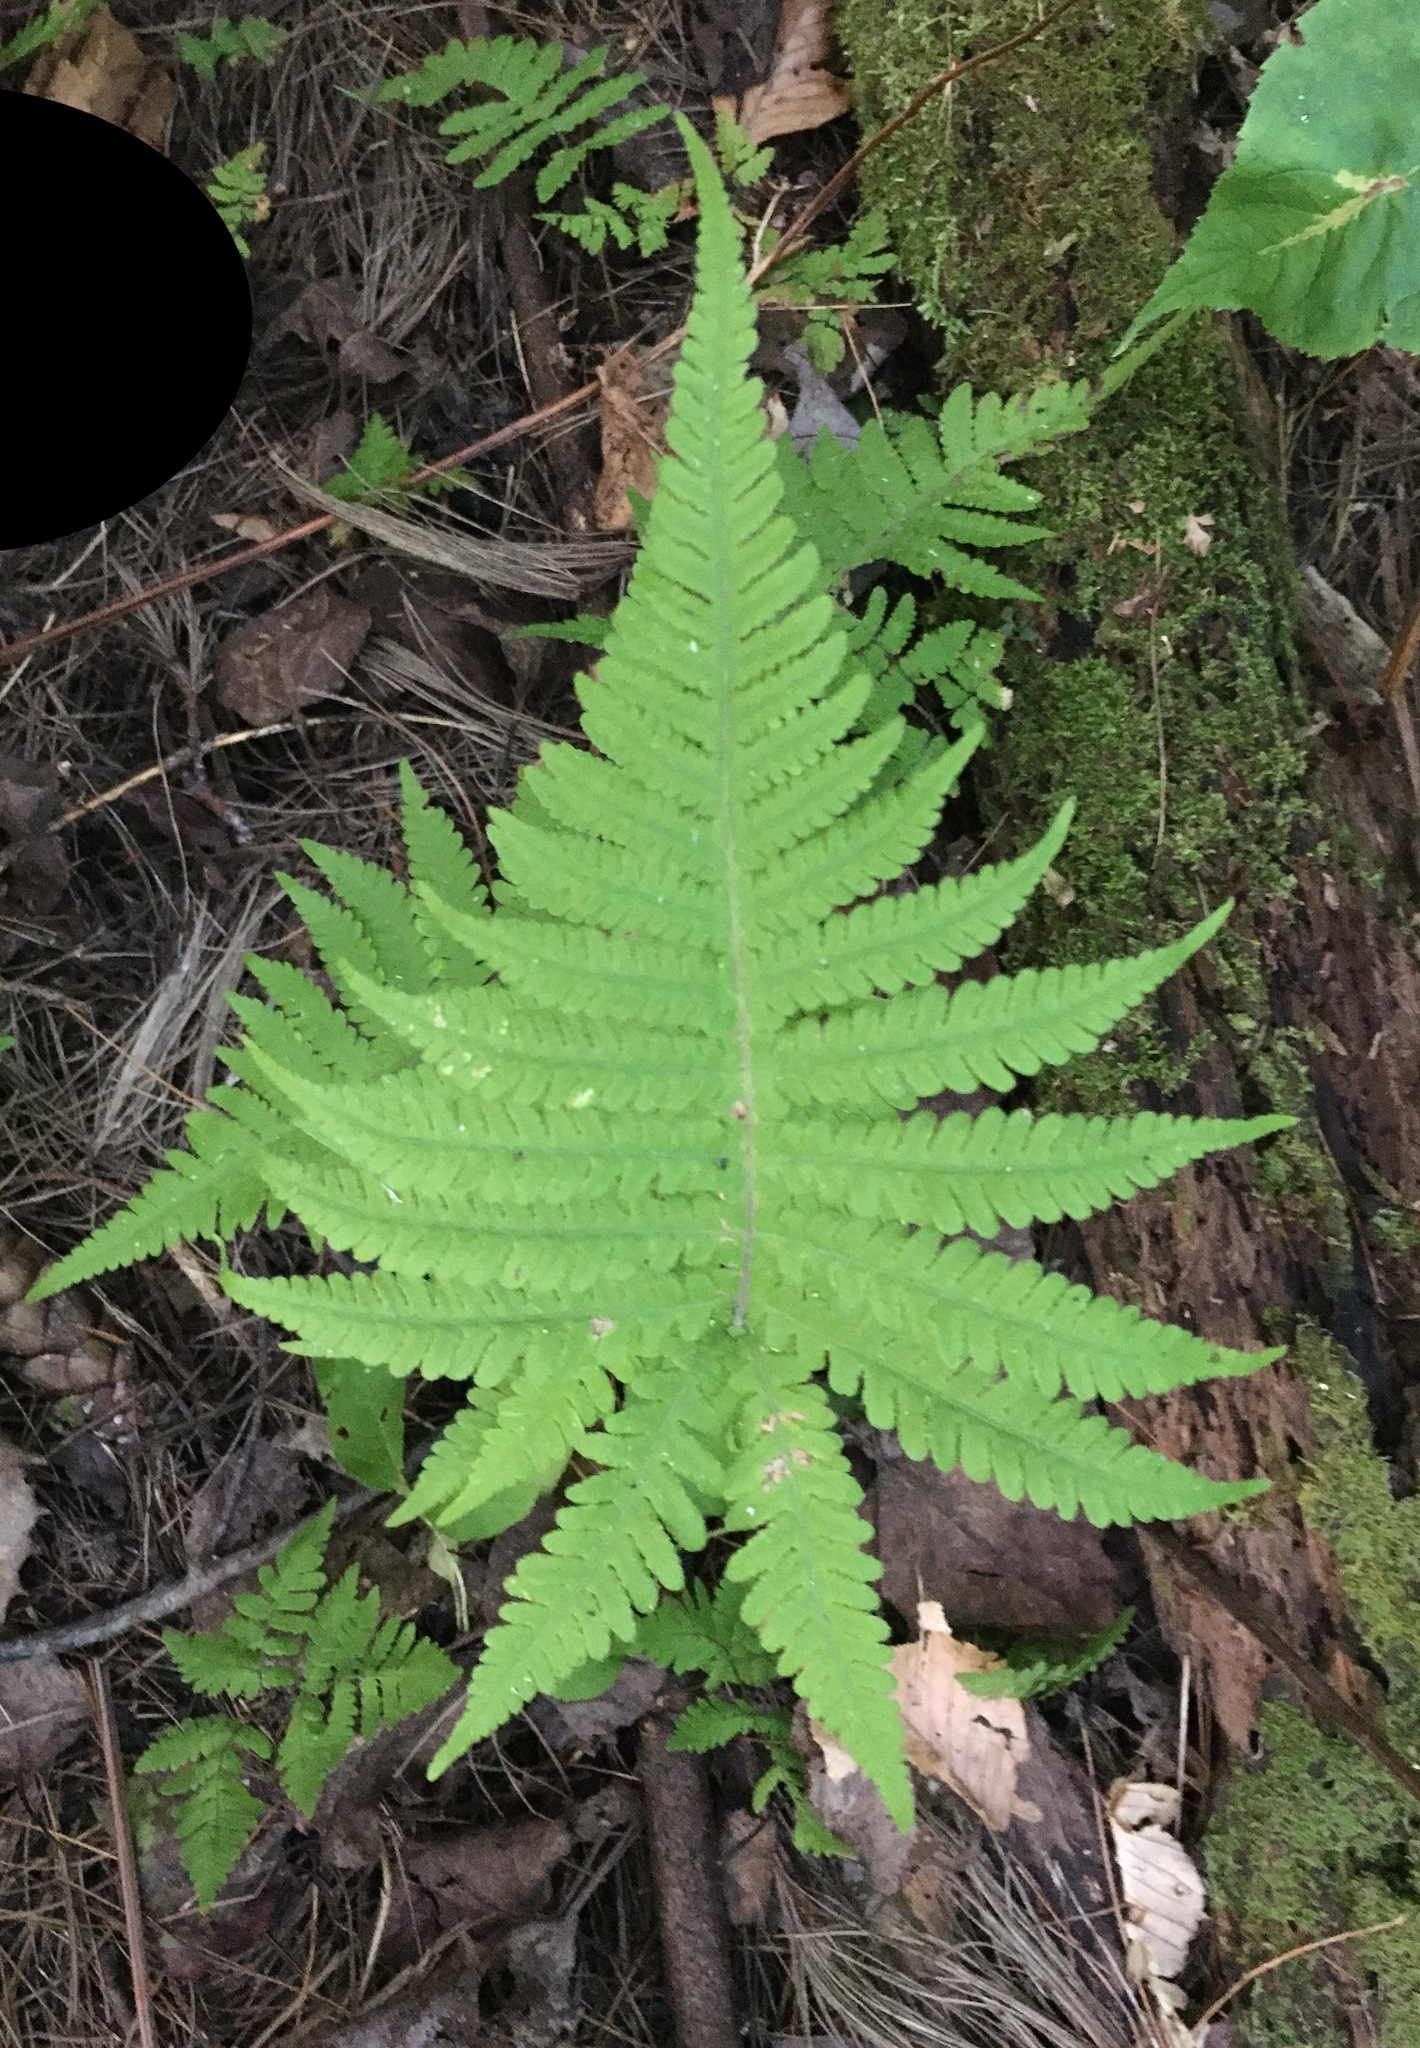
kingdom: Plantae
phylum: Tracheophyta
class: Polypodiopsida
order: Polypodiales
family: Thelypteridaceae
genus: Phegopteris
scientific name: Phegopteris connectilis
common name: Beech fern
